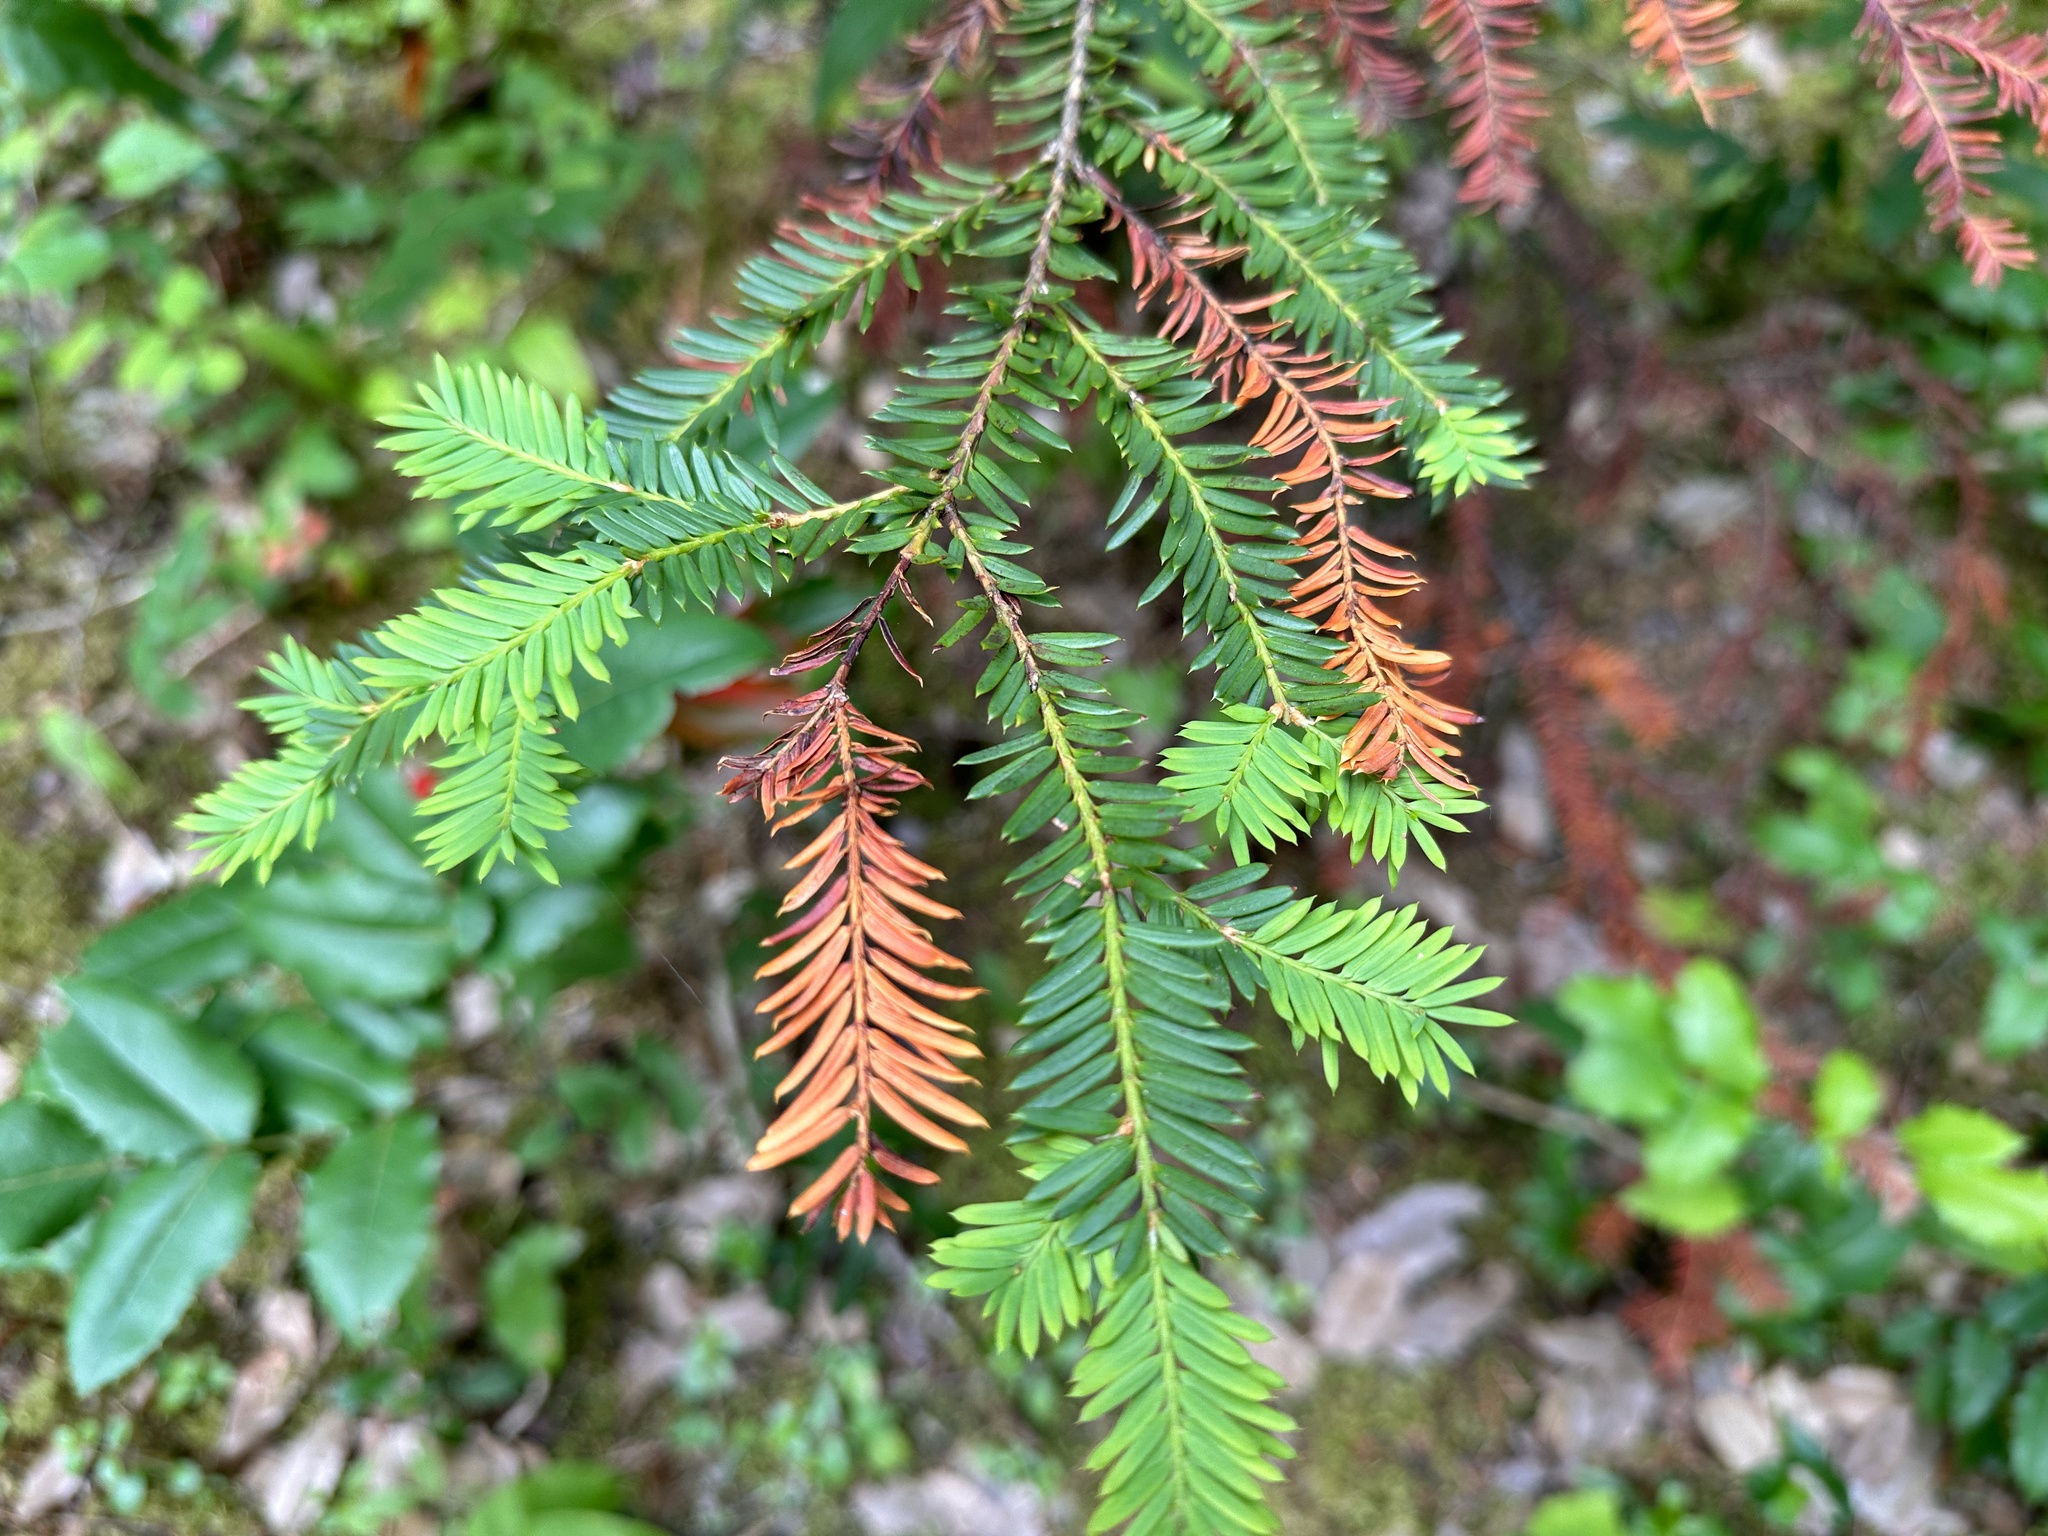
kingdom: Plantae
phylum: Tracheophyta
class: Pinopsida
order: Pinales
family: Taxaceae
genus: Taxus
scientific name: Taxus brevifolia
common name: Pacific yew
